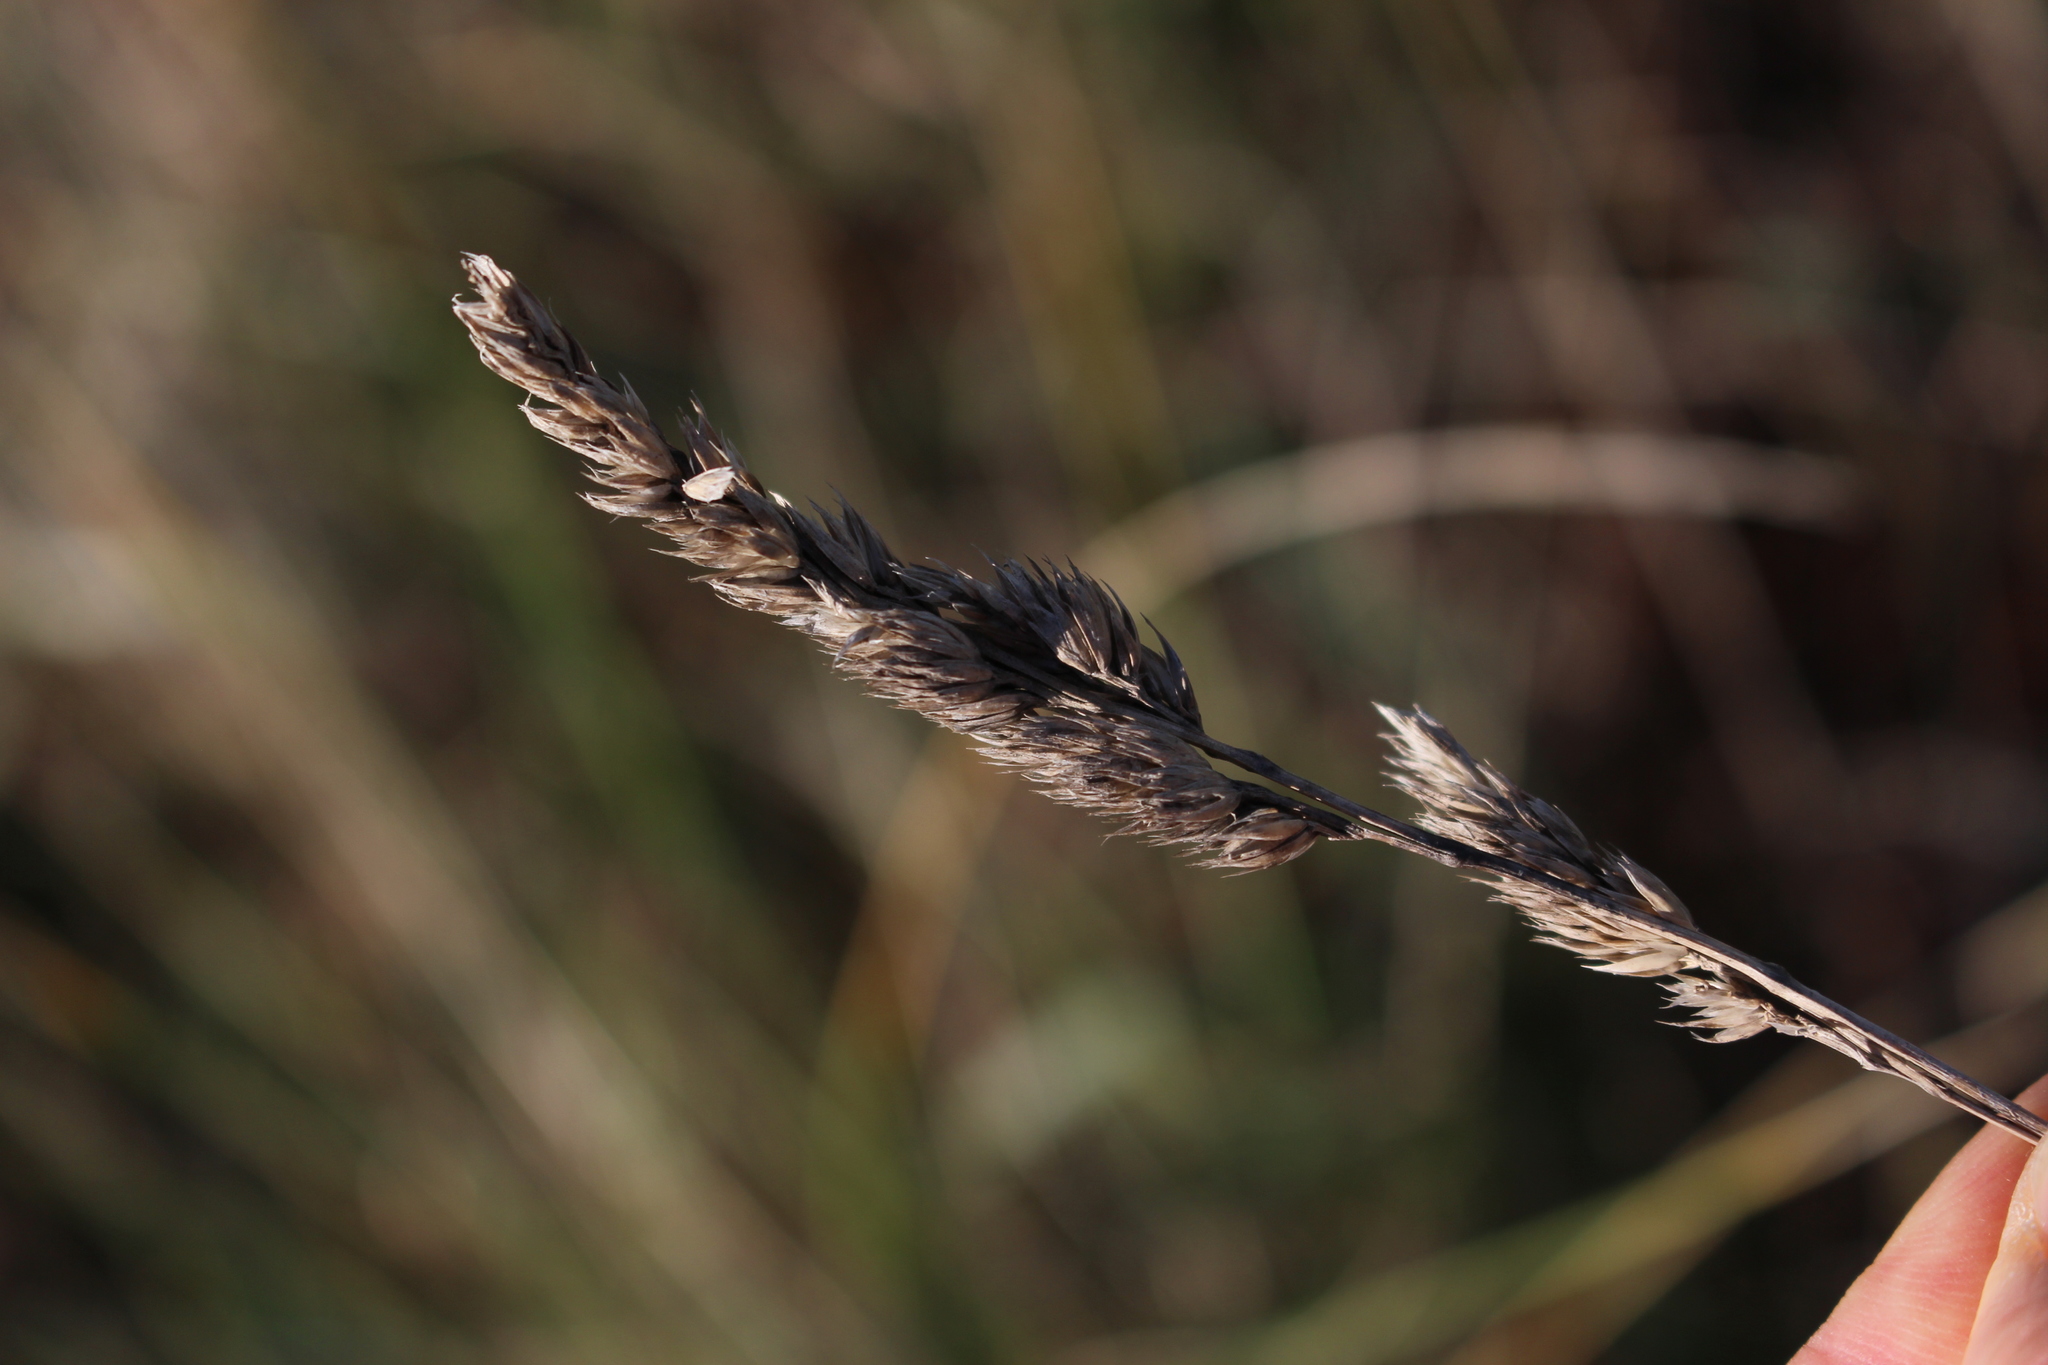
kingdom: Plantae
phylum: Tracheophyta
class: Liliopsida
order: Poales
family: Poaceae
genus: Dactylis
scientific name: Dactylis glomerata
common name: Orchardgrass
